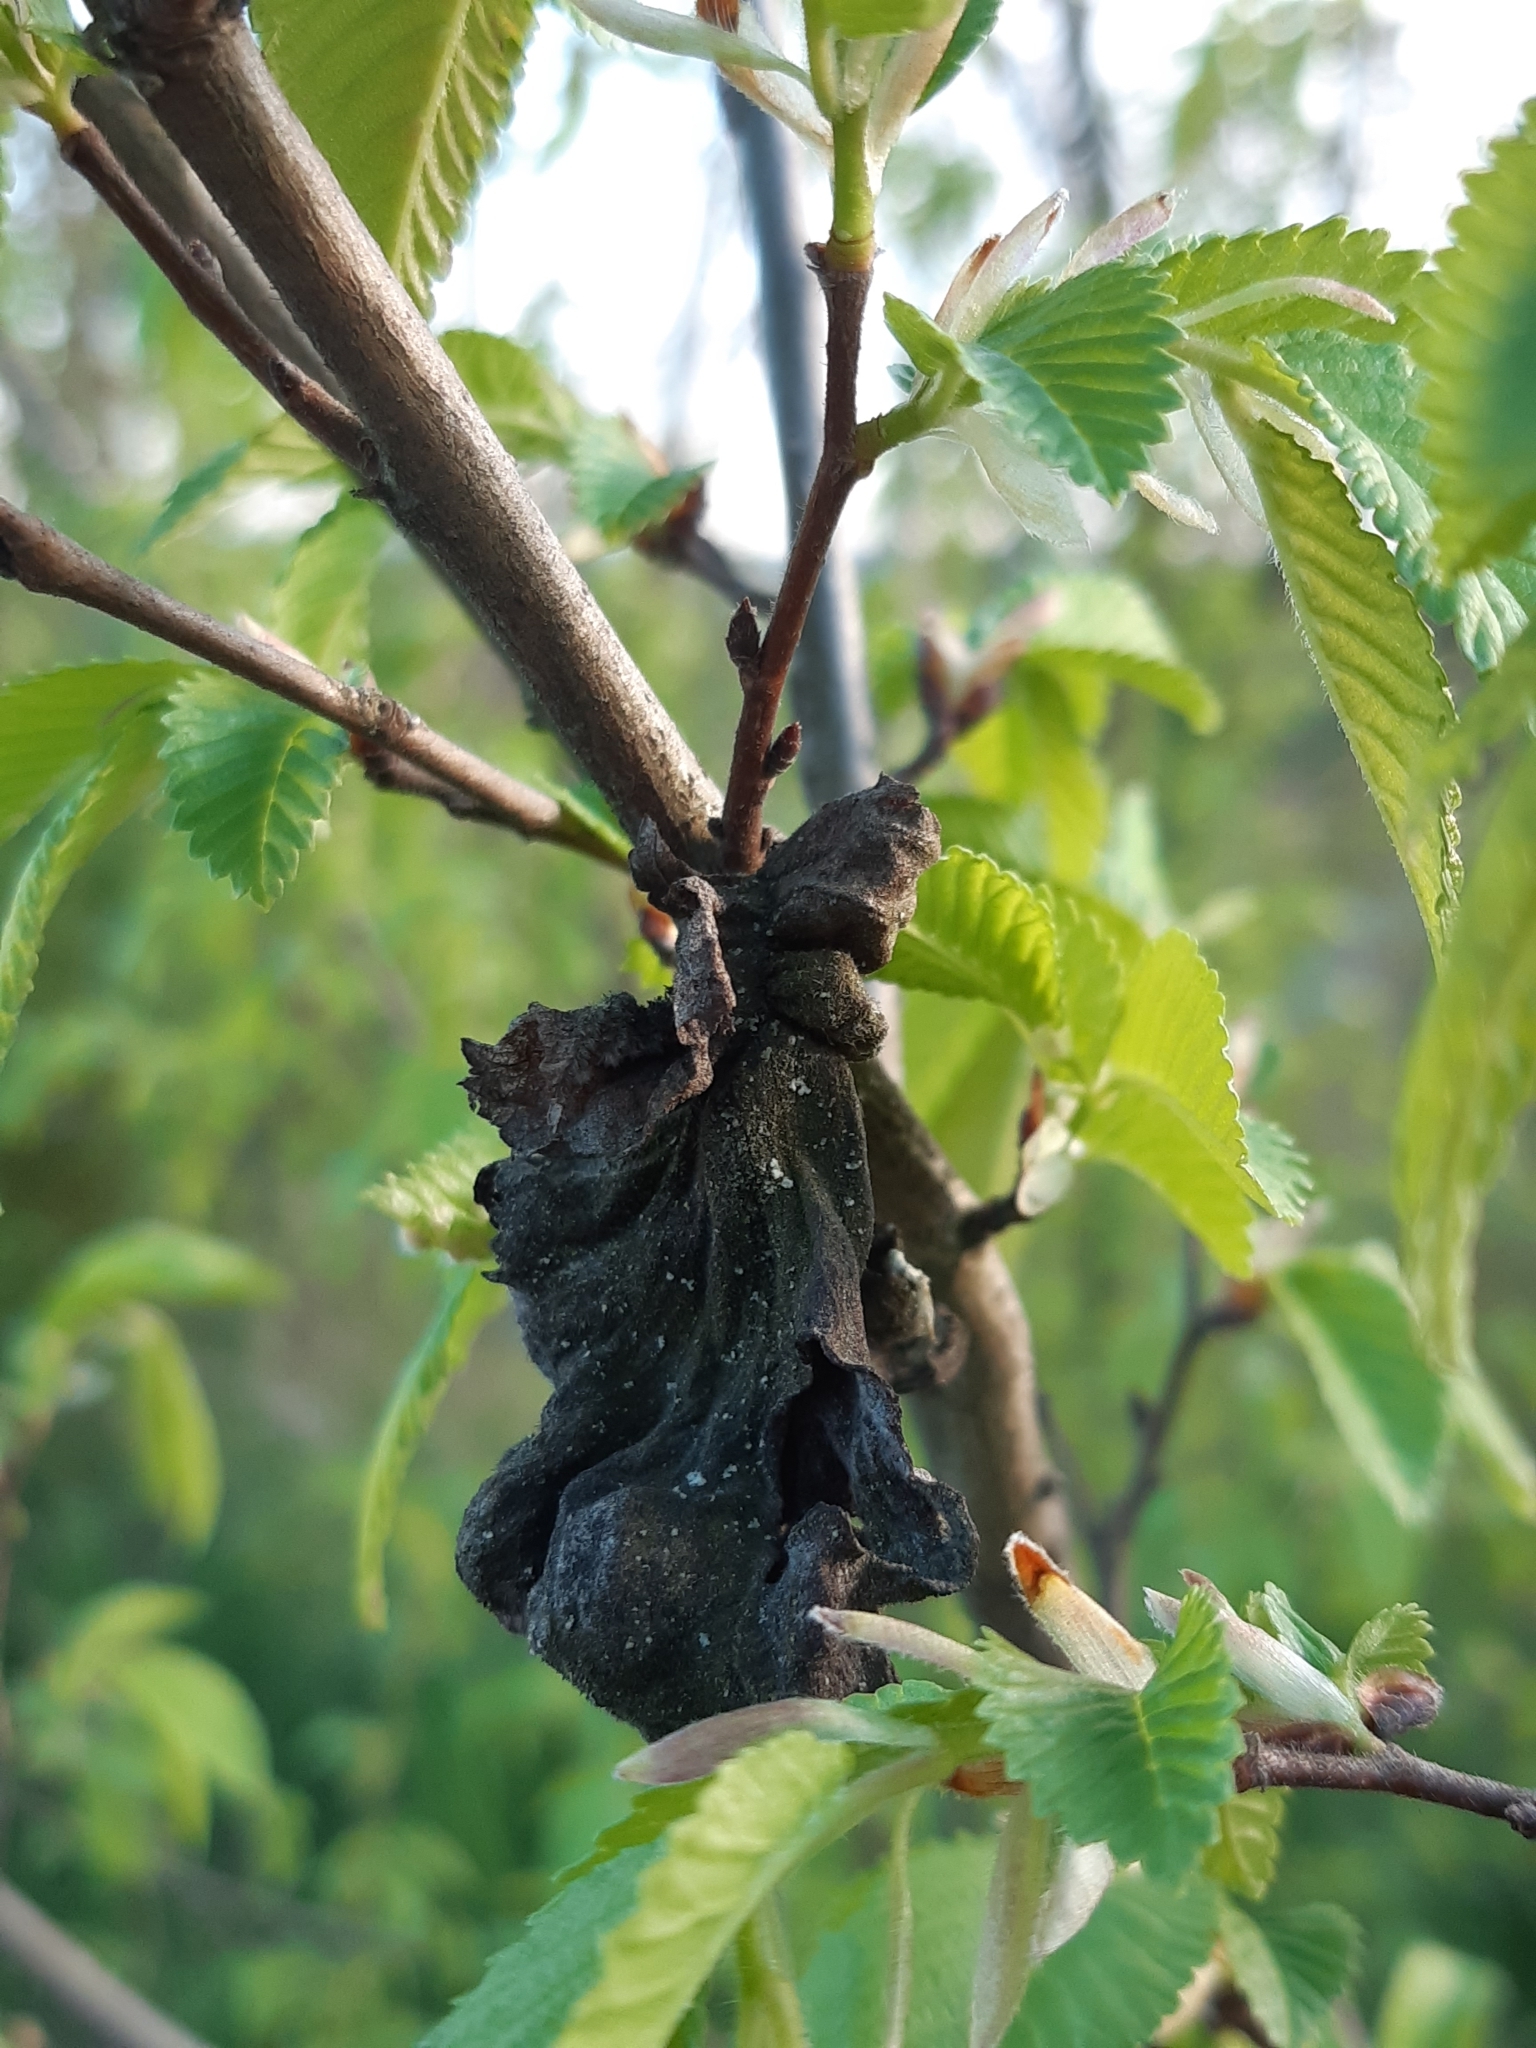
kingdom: Animalia
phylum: Arthropoda
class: Insecta
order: Hemiptera
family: Aphididae
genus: Eriosoma
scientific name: Eriosoma lanuginosum
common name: Aphid
